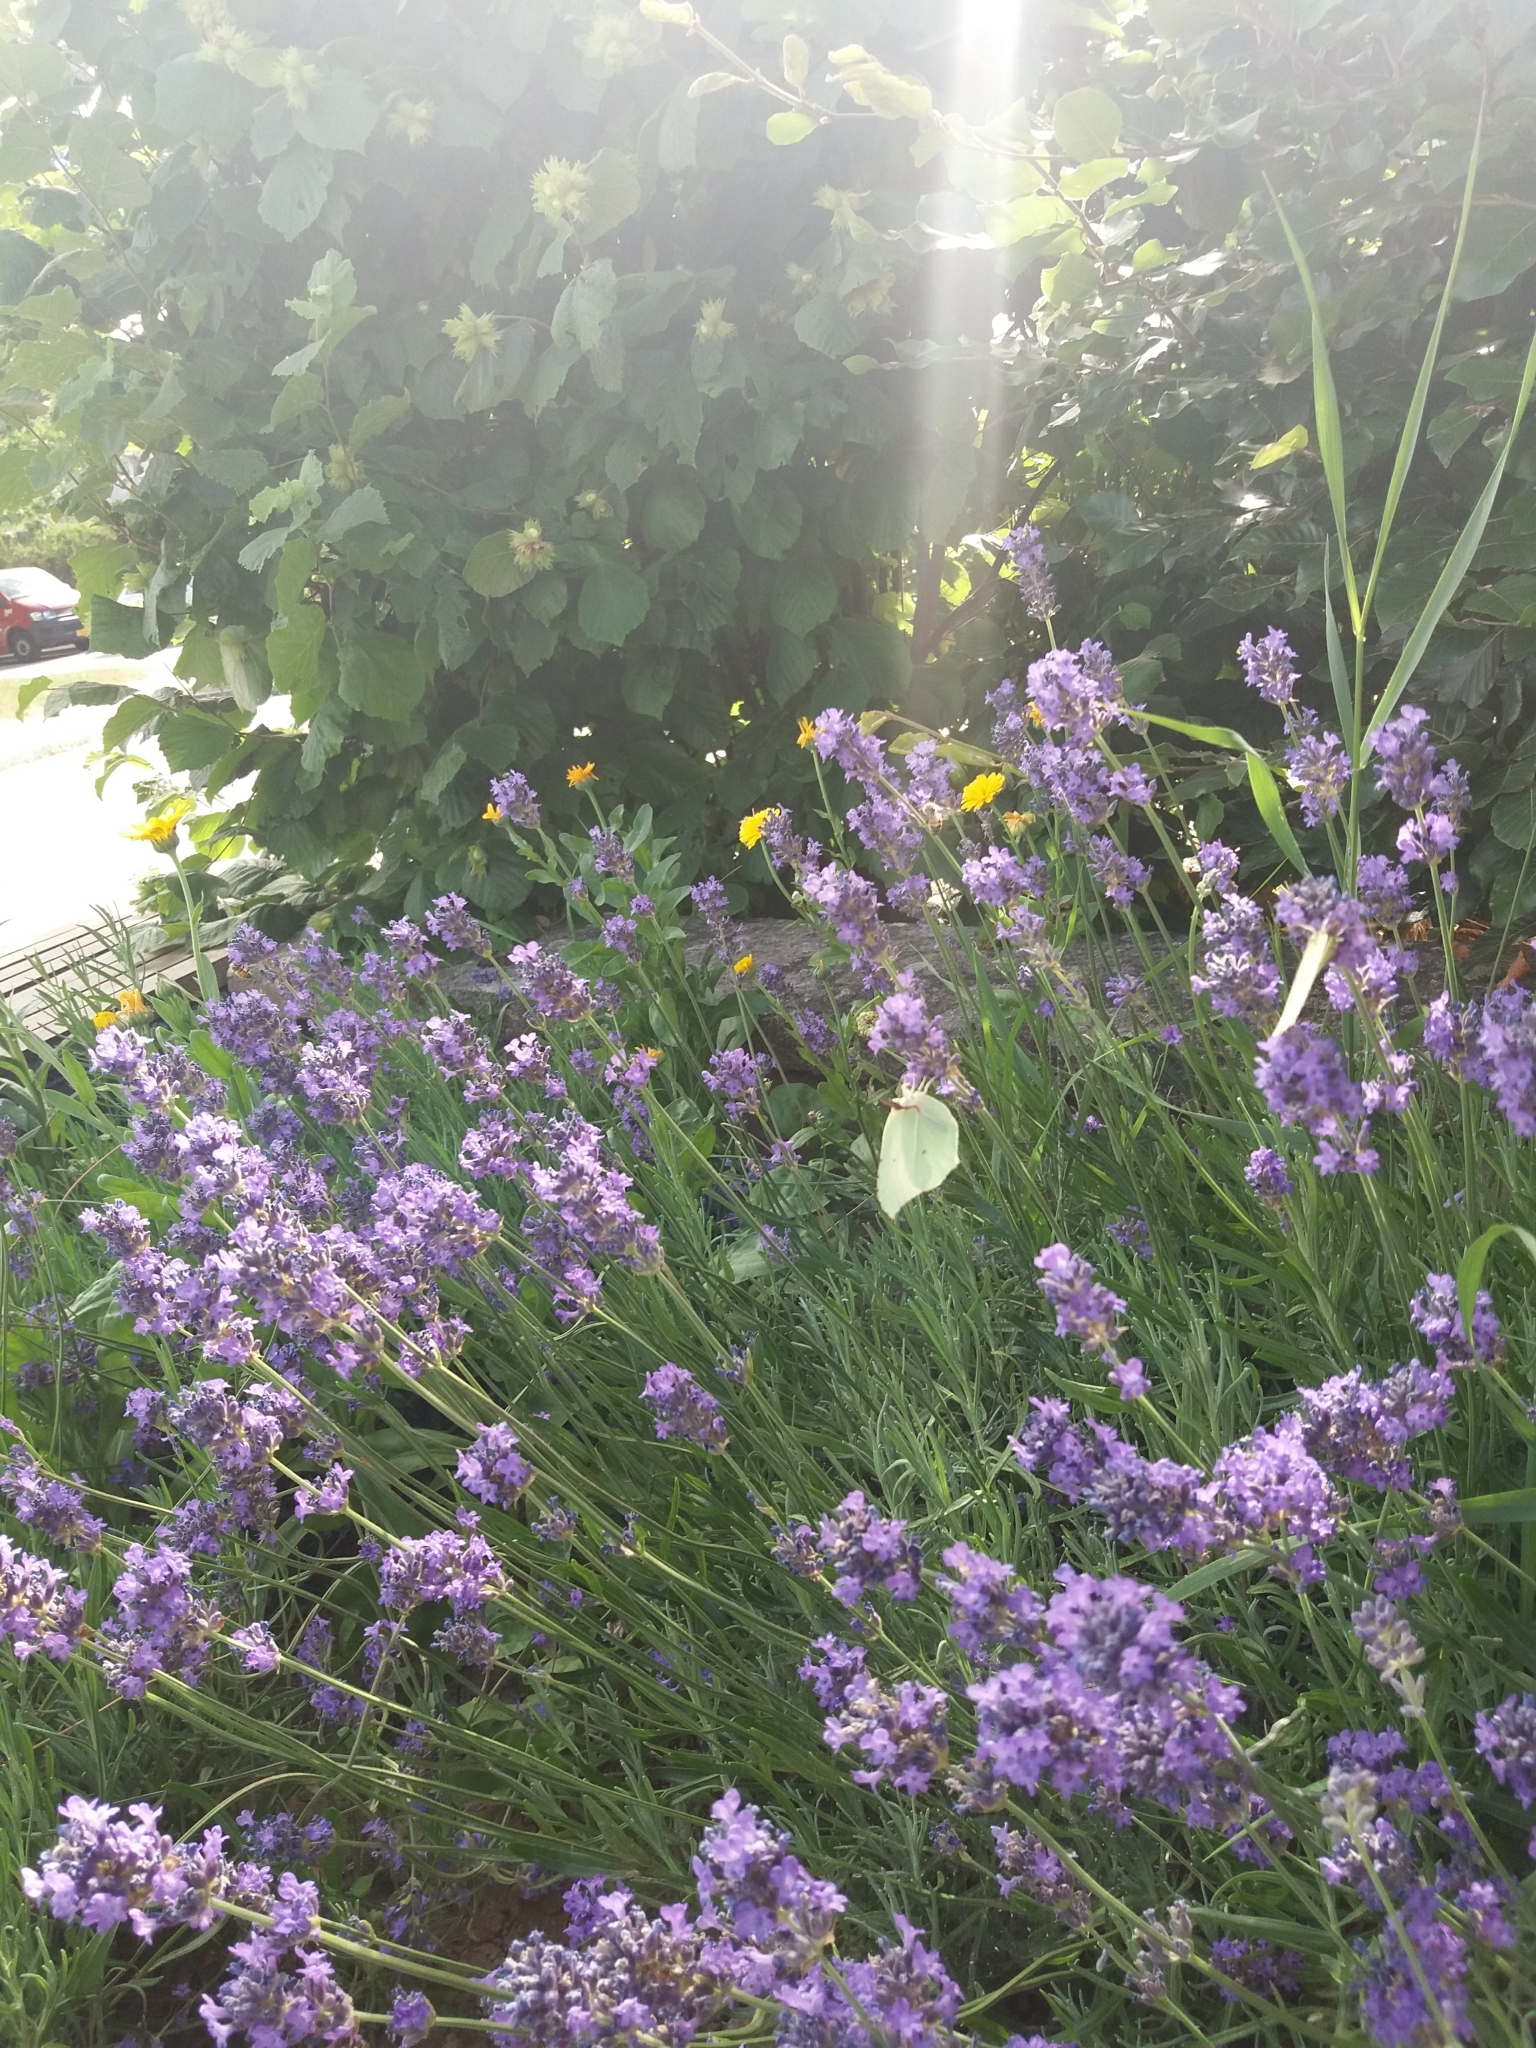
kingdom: Animalia
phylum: Arthropoda
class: Insecta
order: Lepidoptera
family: Pieridae
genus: Gonepteryx
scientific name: Gonepteryx rhamni
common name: Brimstone
